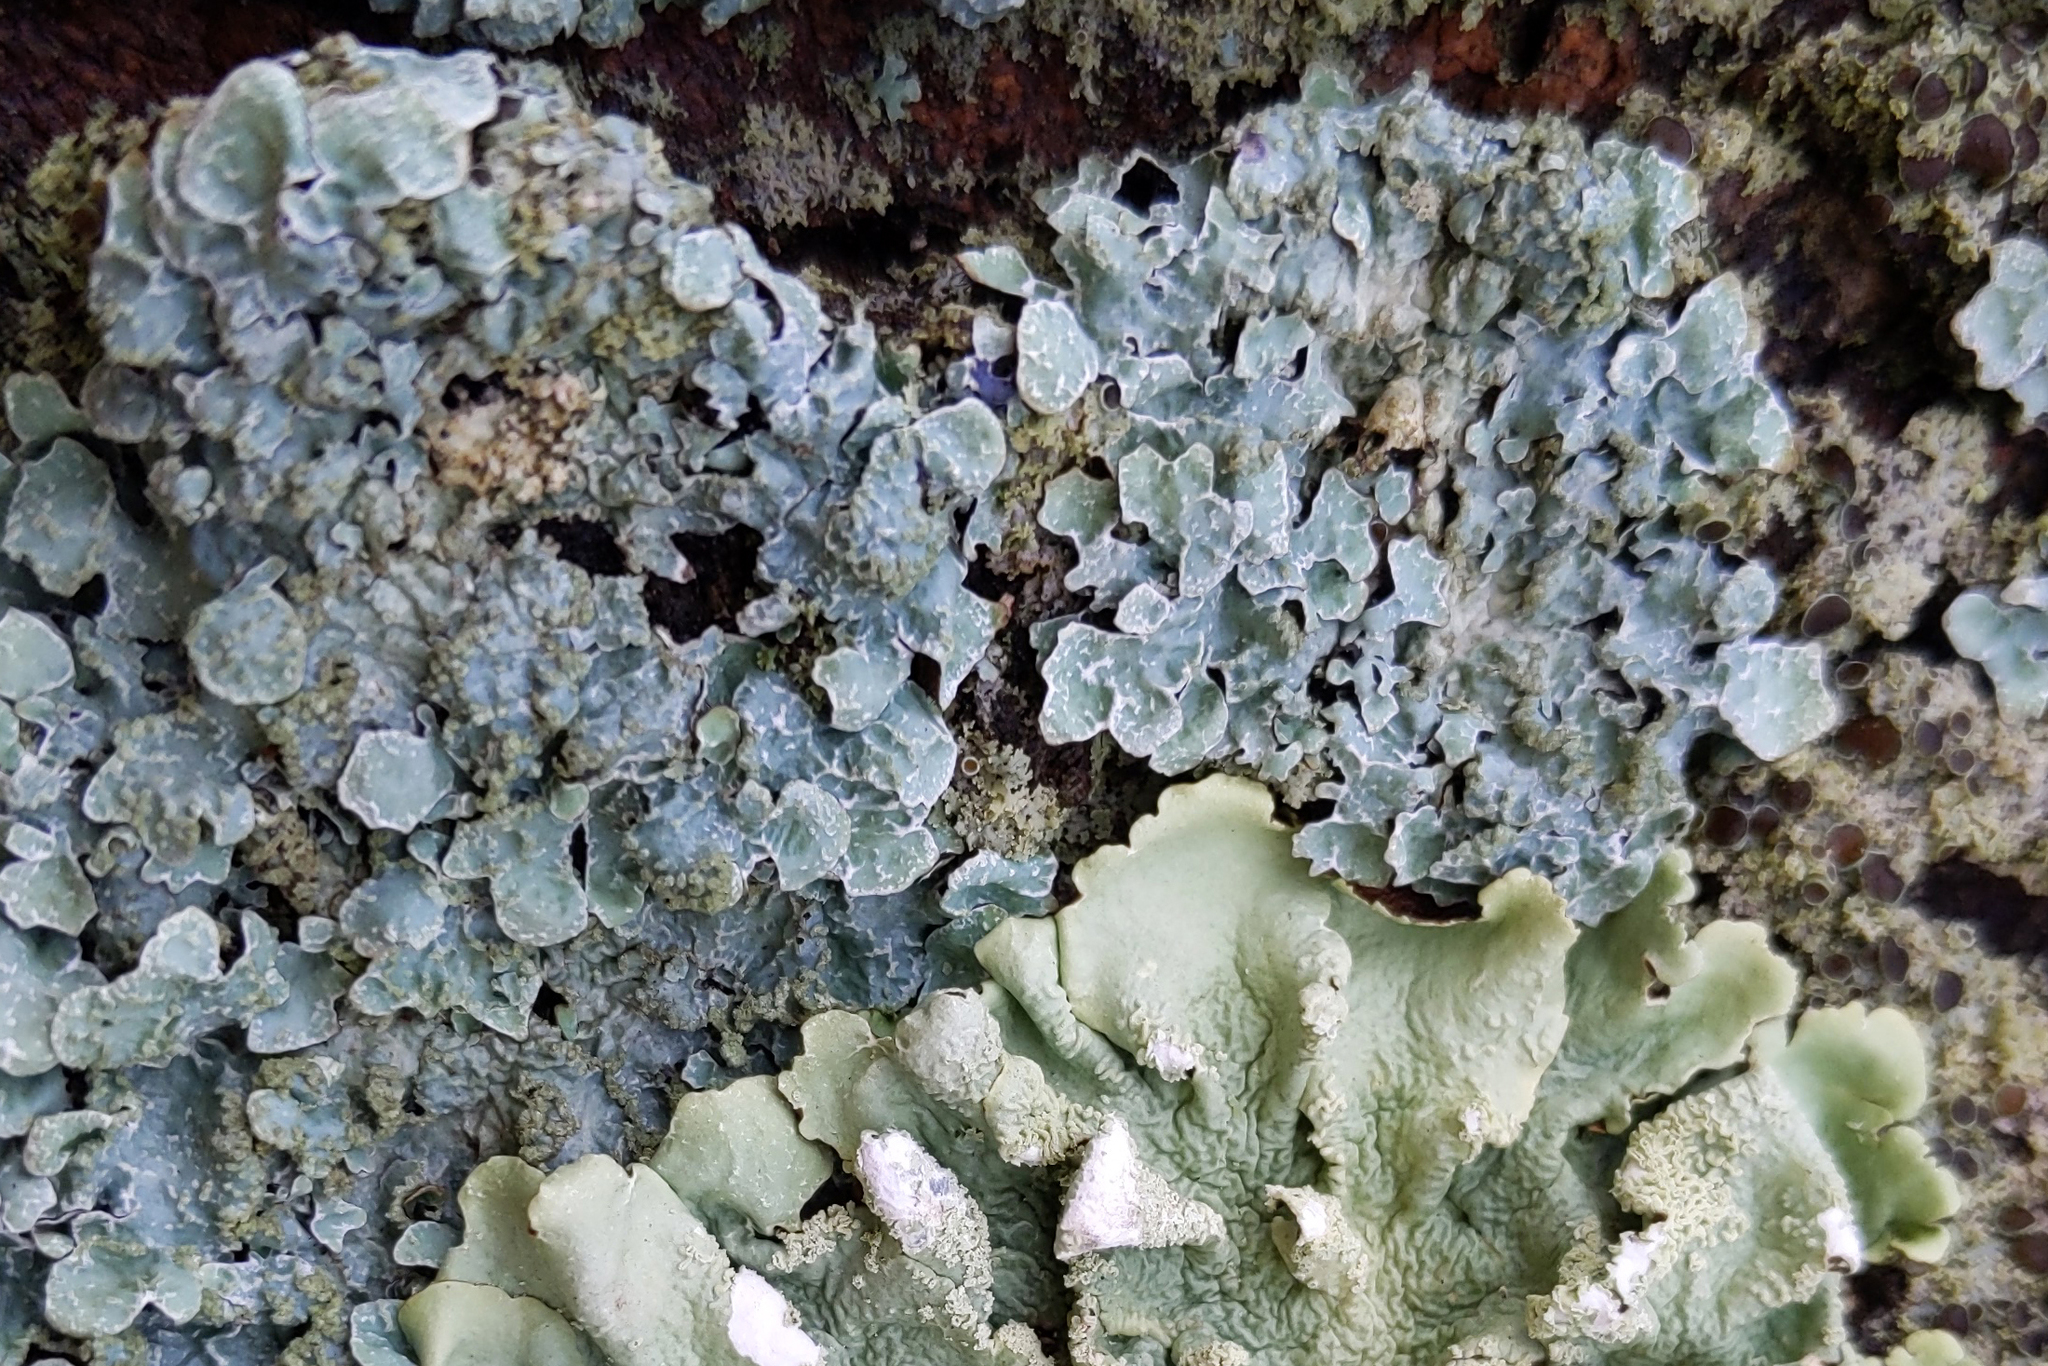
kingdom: Fungi
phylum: Ascomycota
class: Lecanoromycetes
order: Lecanorales
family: Parmeliaceae
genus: Parmelia
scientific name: Parmelia sulcata
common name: Netted shield lichen
